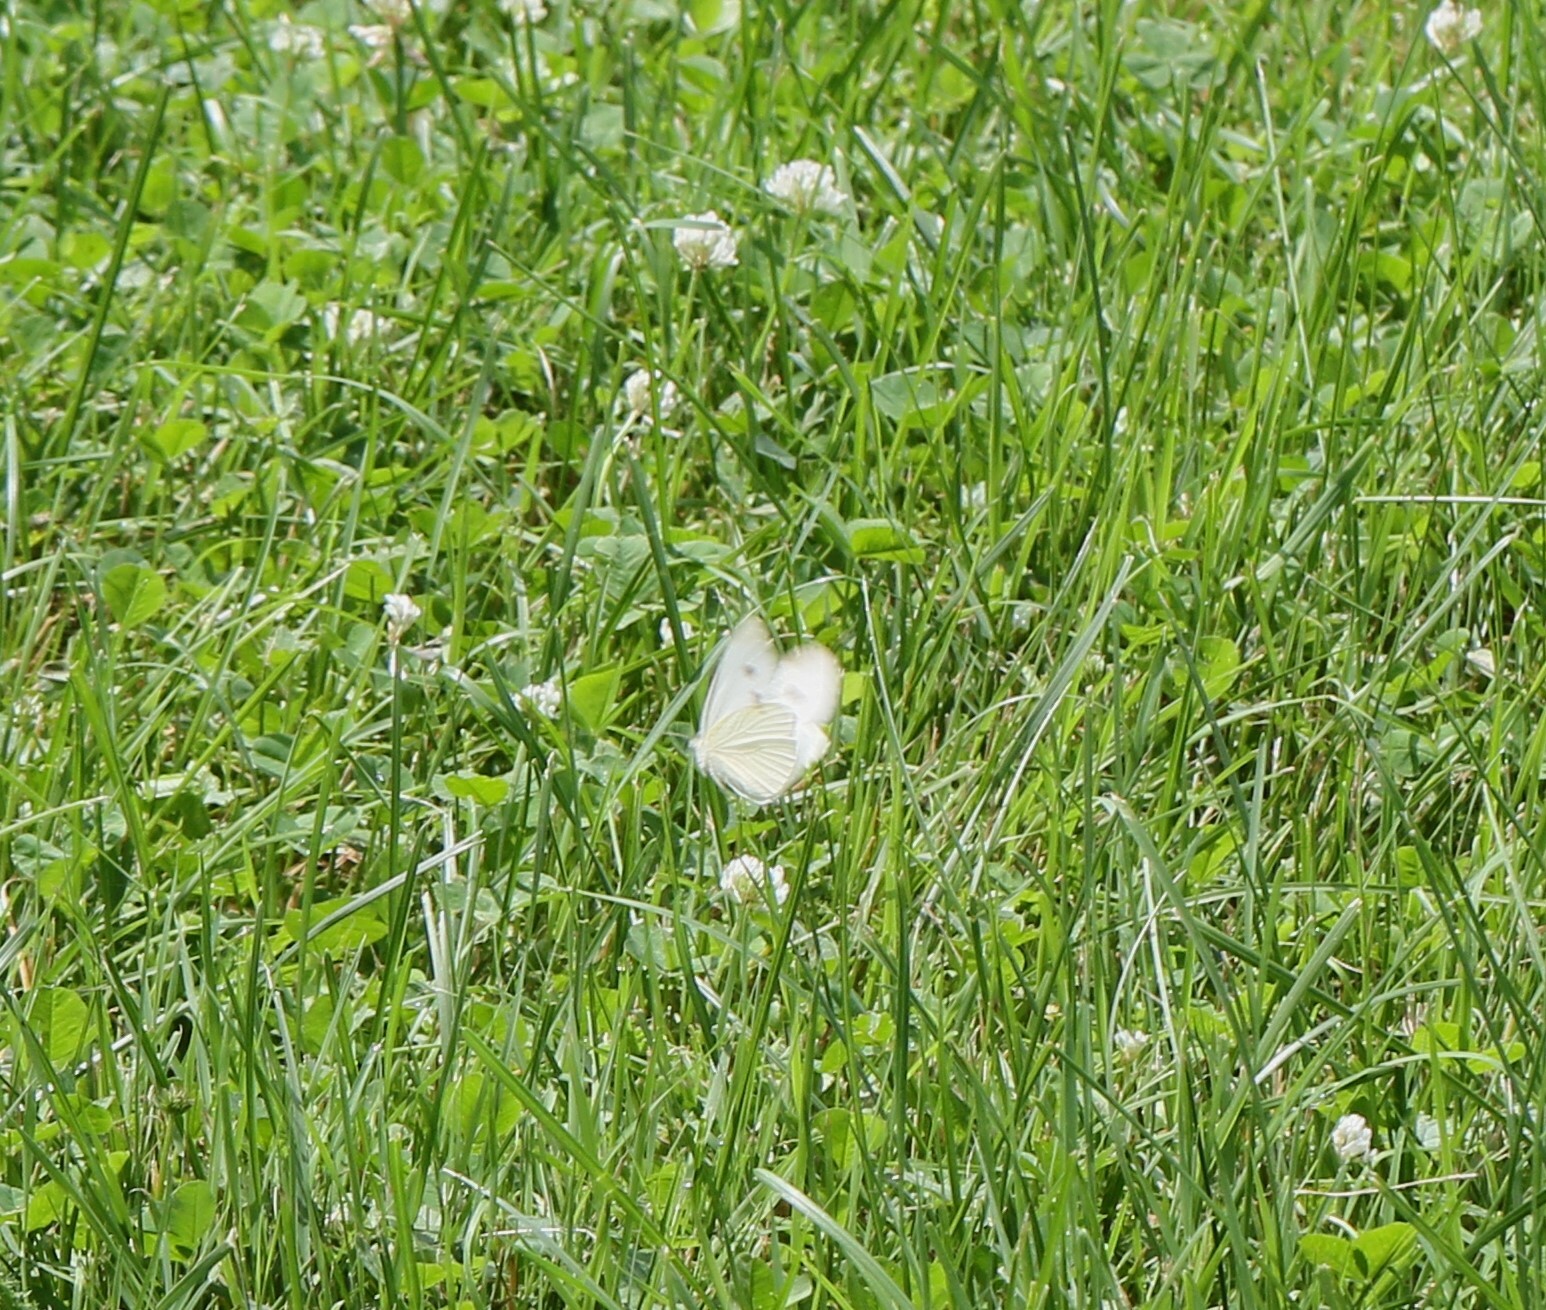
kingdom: Animalia
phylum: Arthropoda
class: Insecta
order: Lepidoptera
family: Pieridae
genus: Pieris
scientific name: Pieris rapae
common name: Small white
